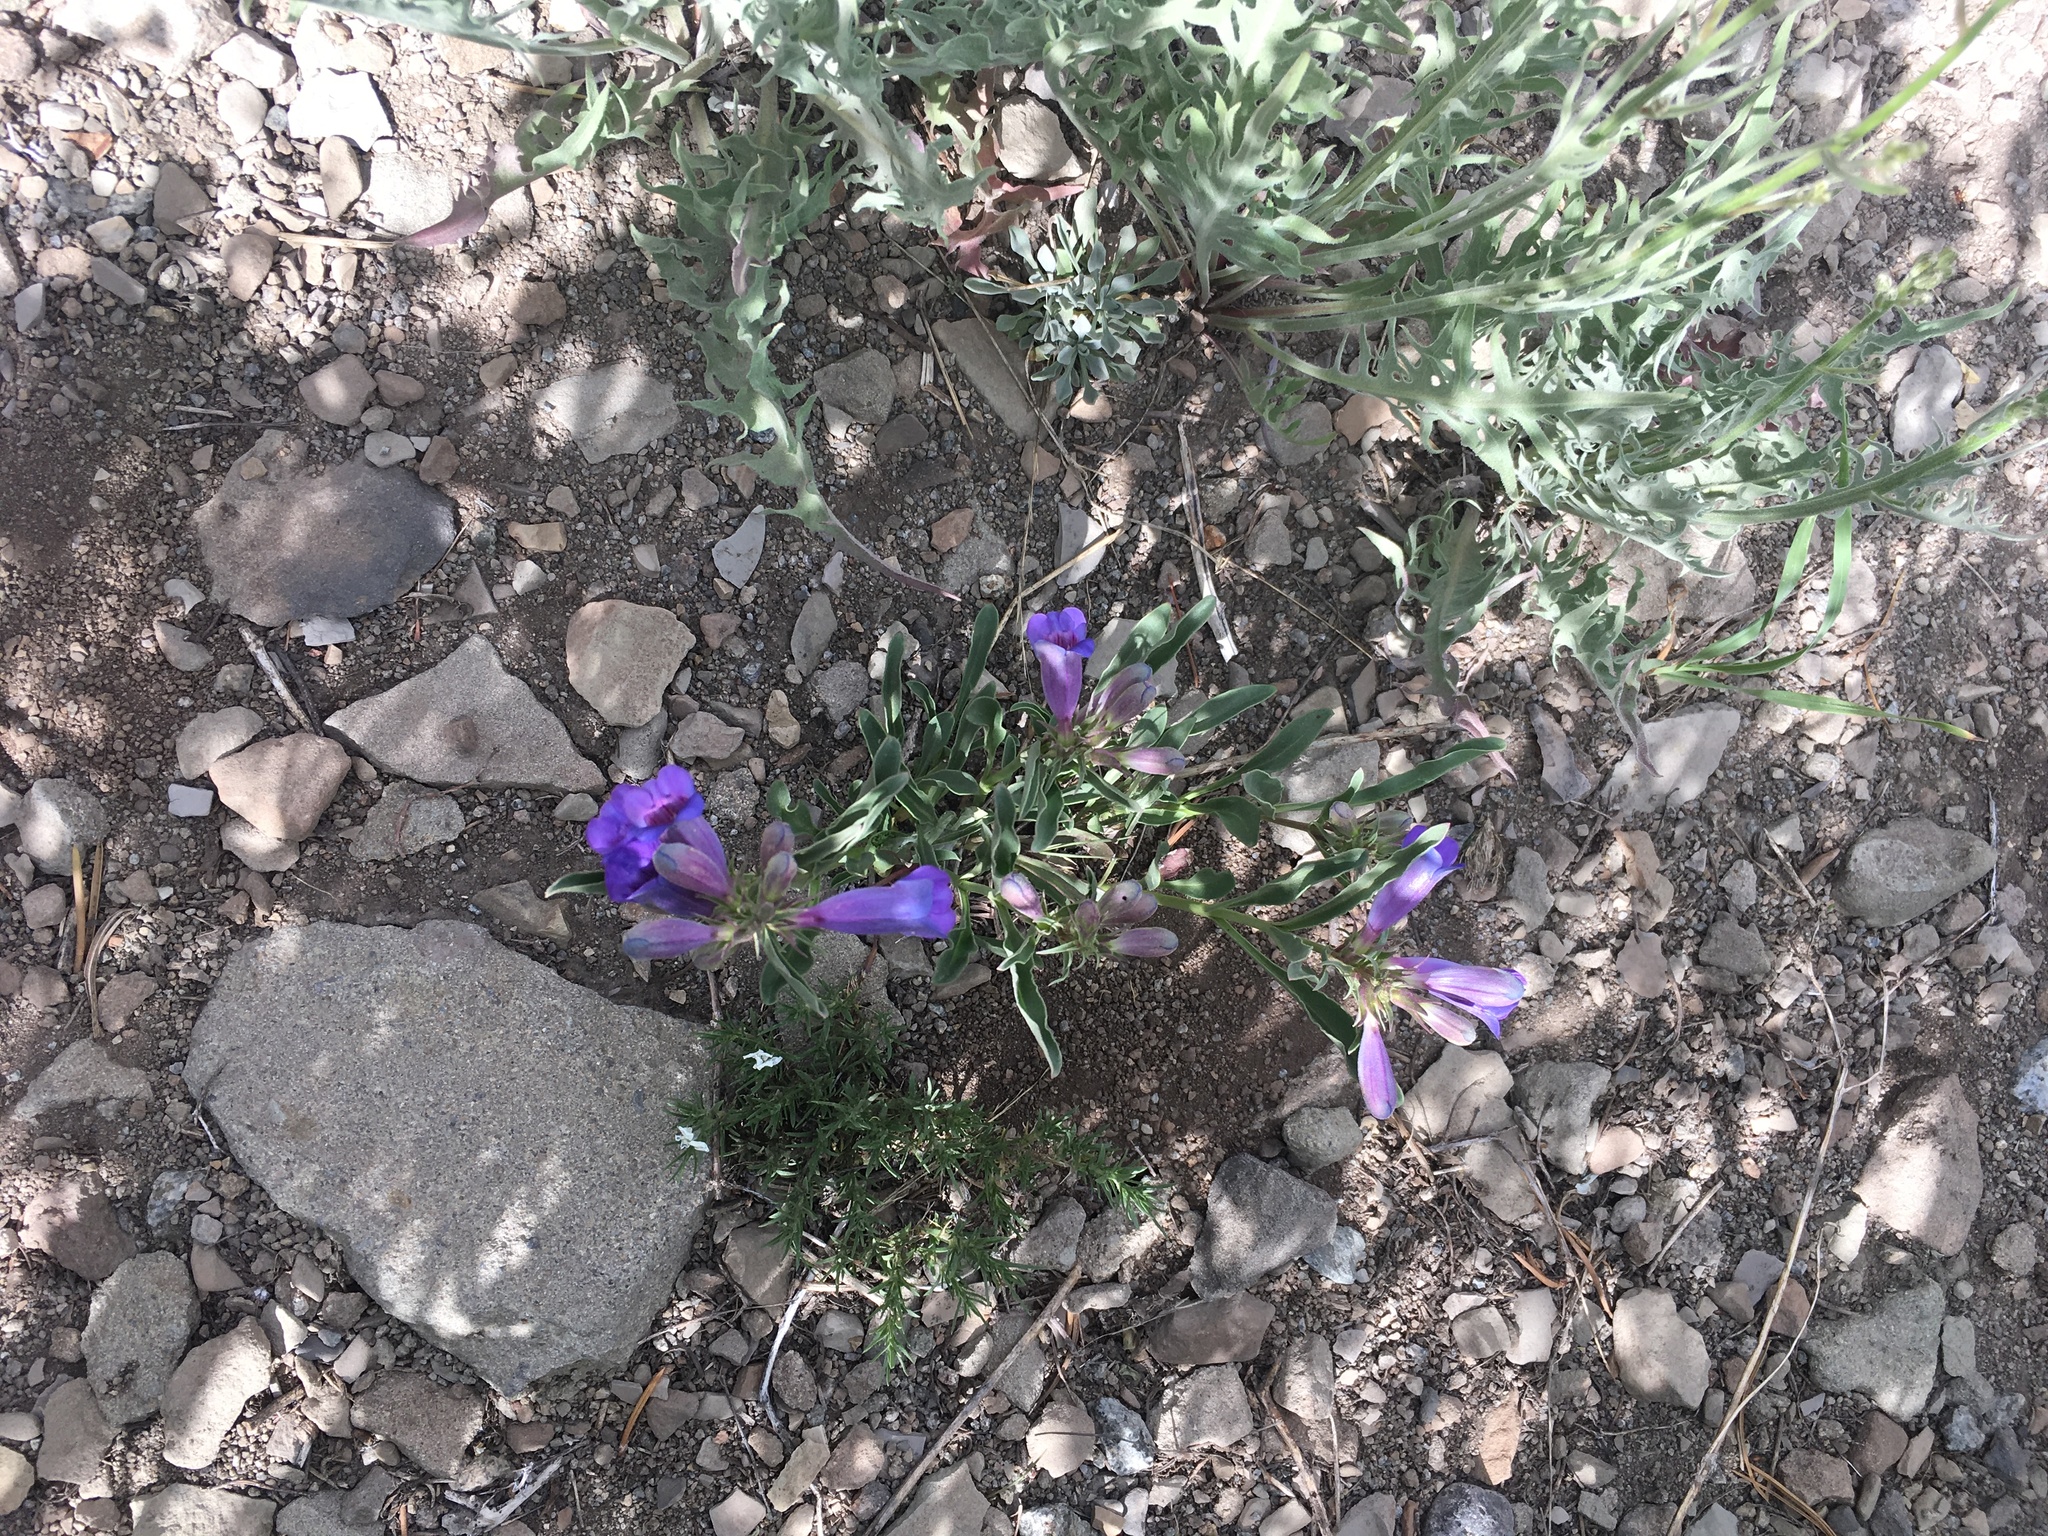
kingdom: Plantae
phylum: Tracheophyta
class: Magnoliopsida
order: Lamiales
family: Plantaginaceae
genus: Penstemon
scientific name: Penstemon speciosus
